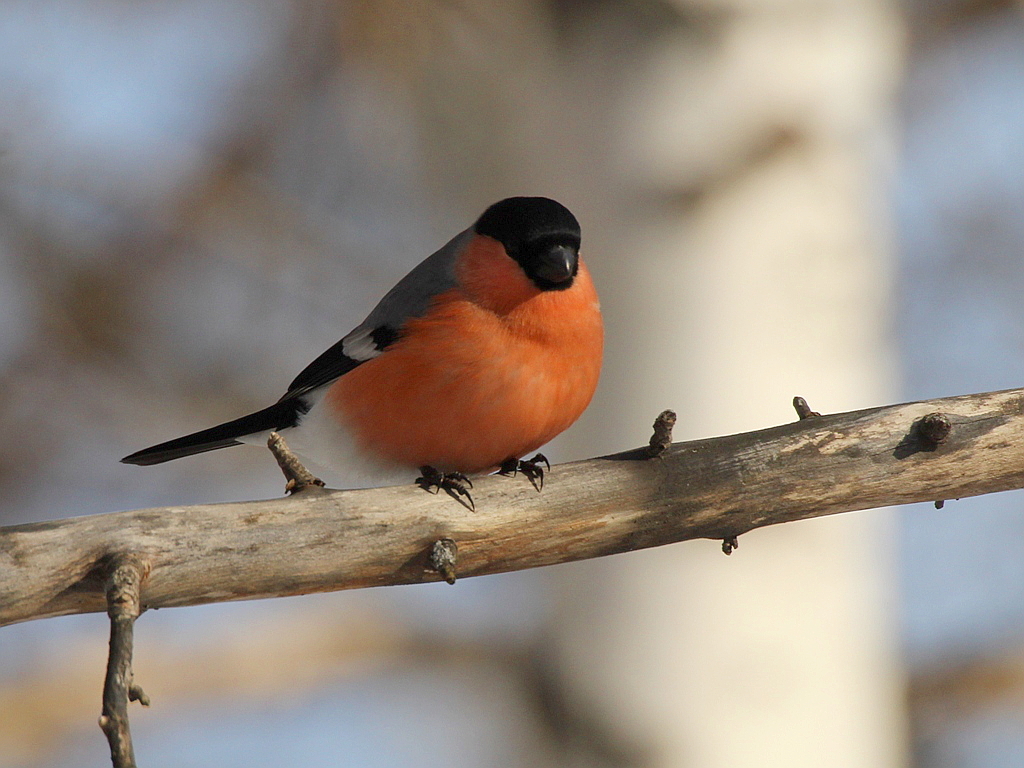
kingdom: Animalia
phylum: Chordata
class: Aves
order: Passeriformes
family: Fringillidae
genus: Pyrrhula
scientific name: Pyrrhula pyrrhula
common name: Eurasian bullfinch
